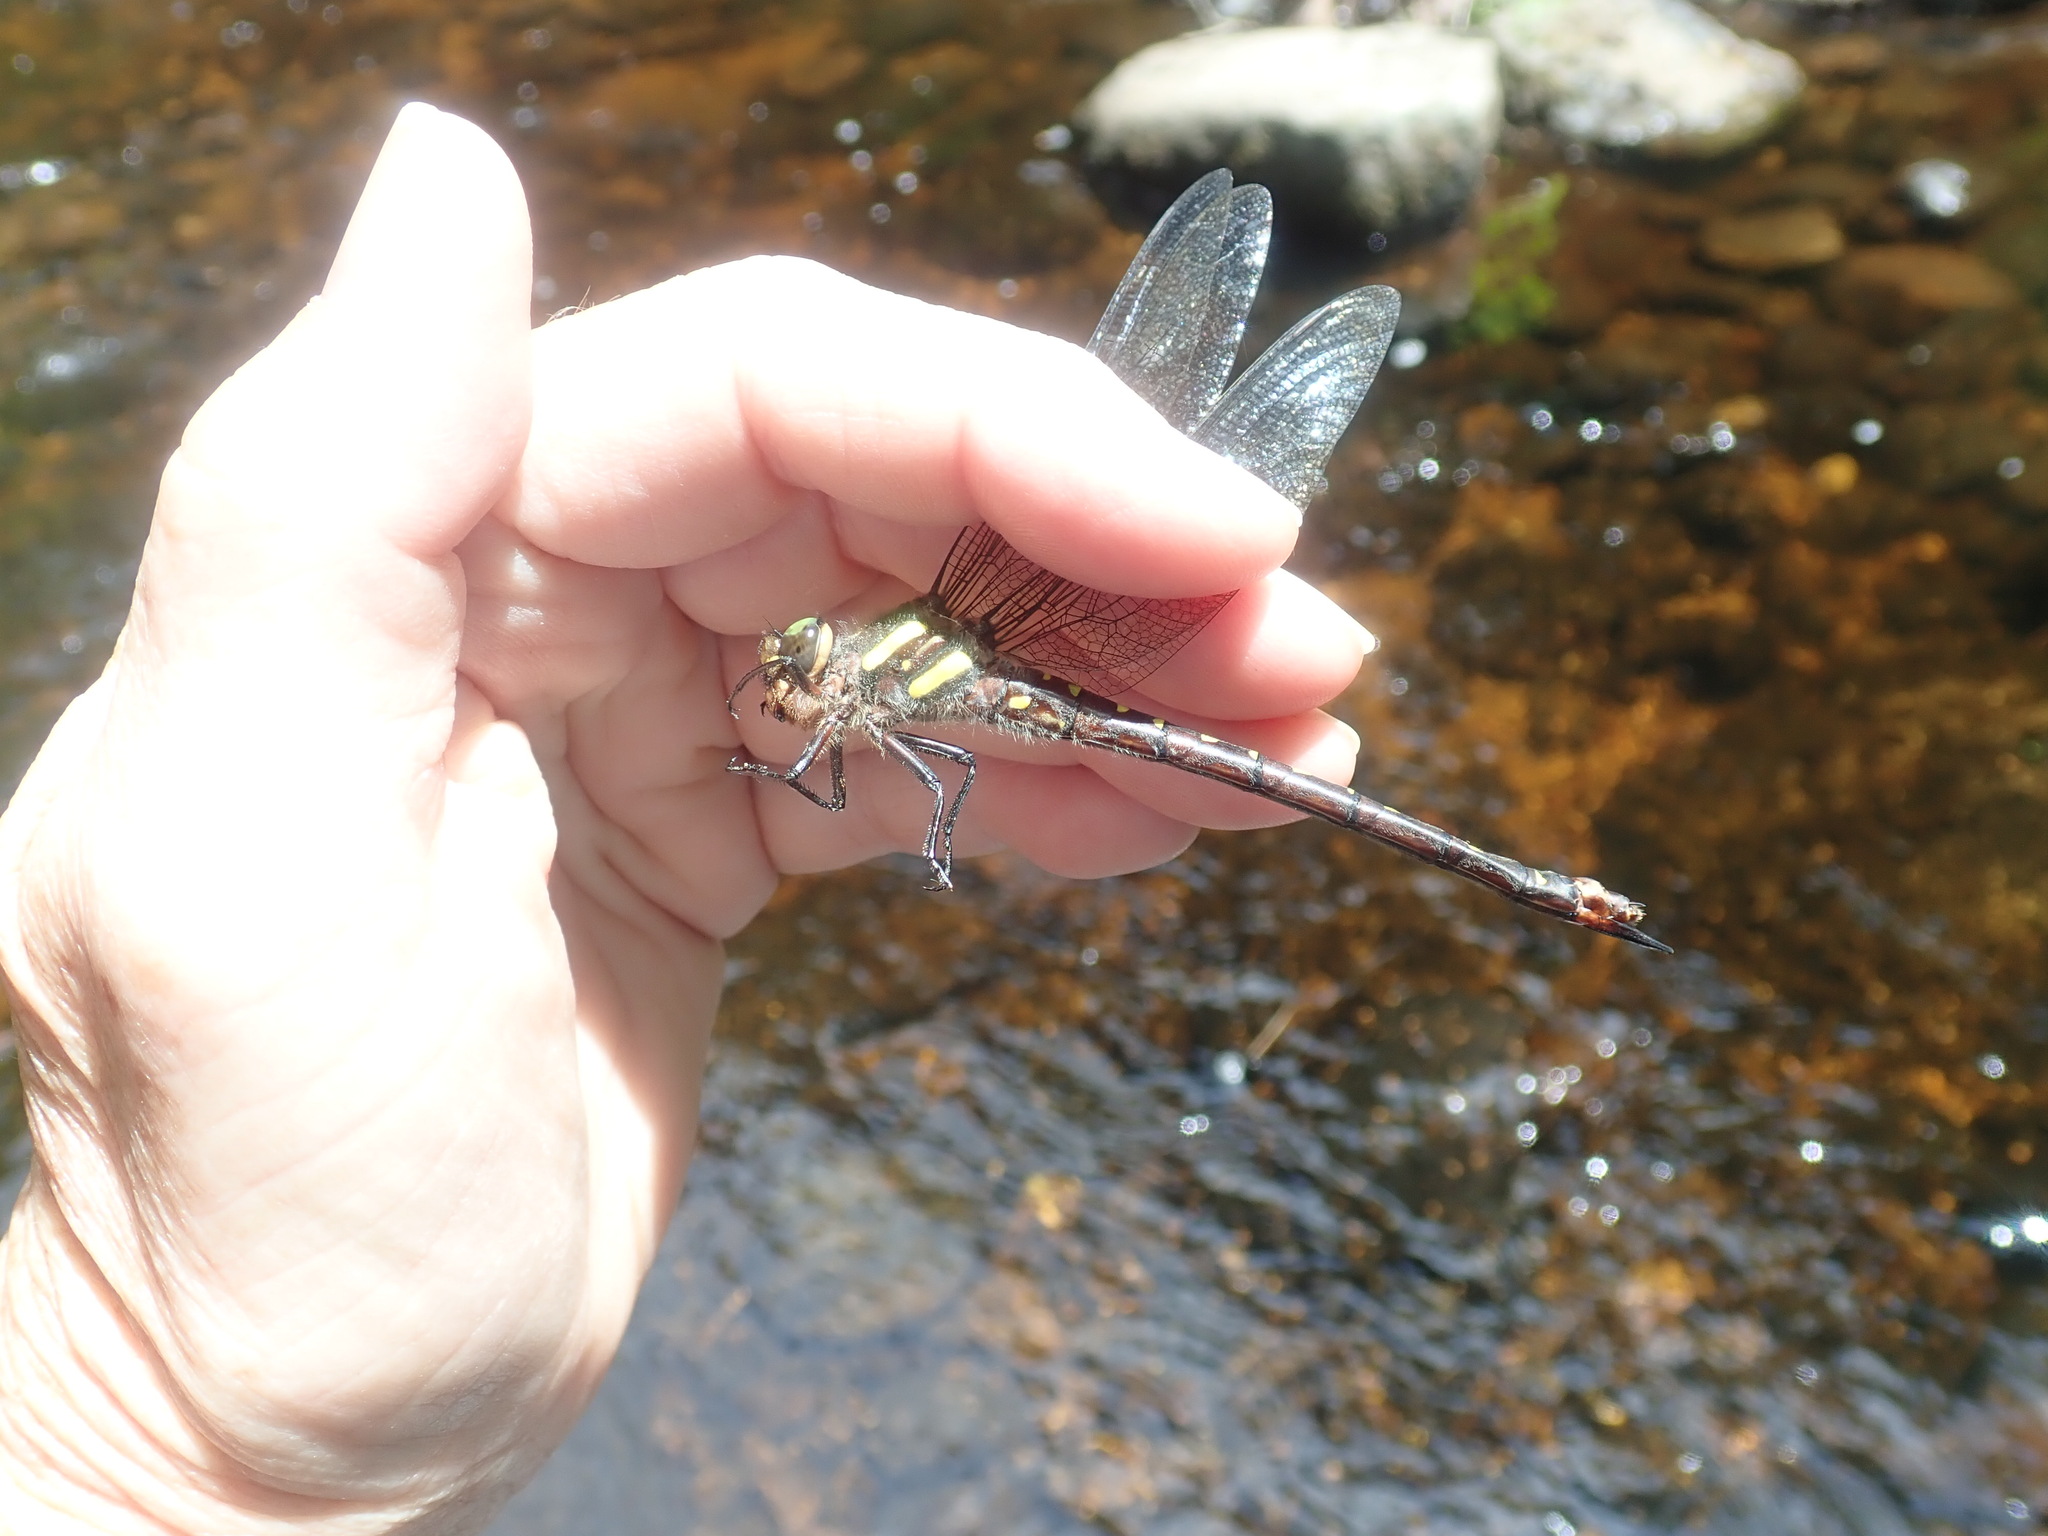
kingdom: Animalia
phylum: Arthropoda
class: Insecta
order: Odonata
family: Cordulegastridae
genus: Cordulegaster
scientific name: Cordulegaster maculata
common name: Twin-spotted spiketail
